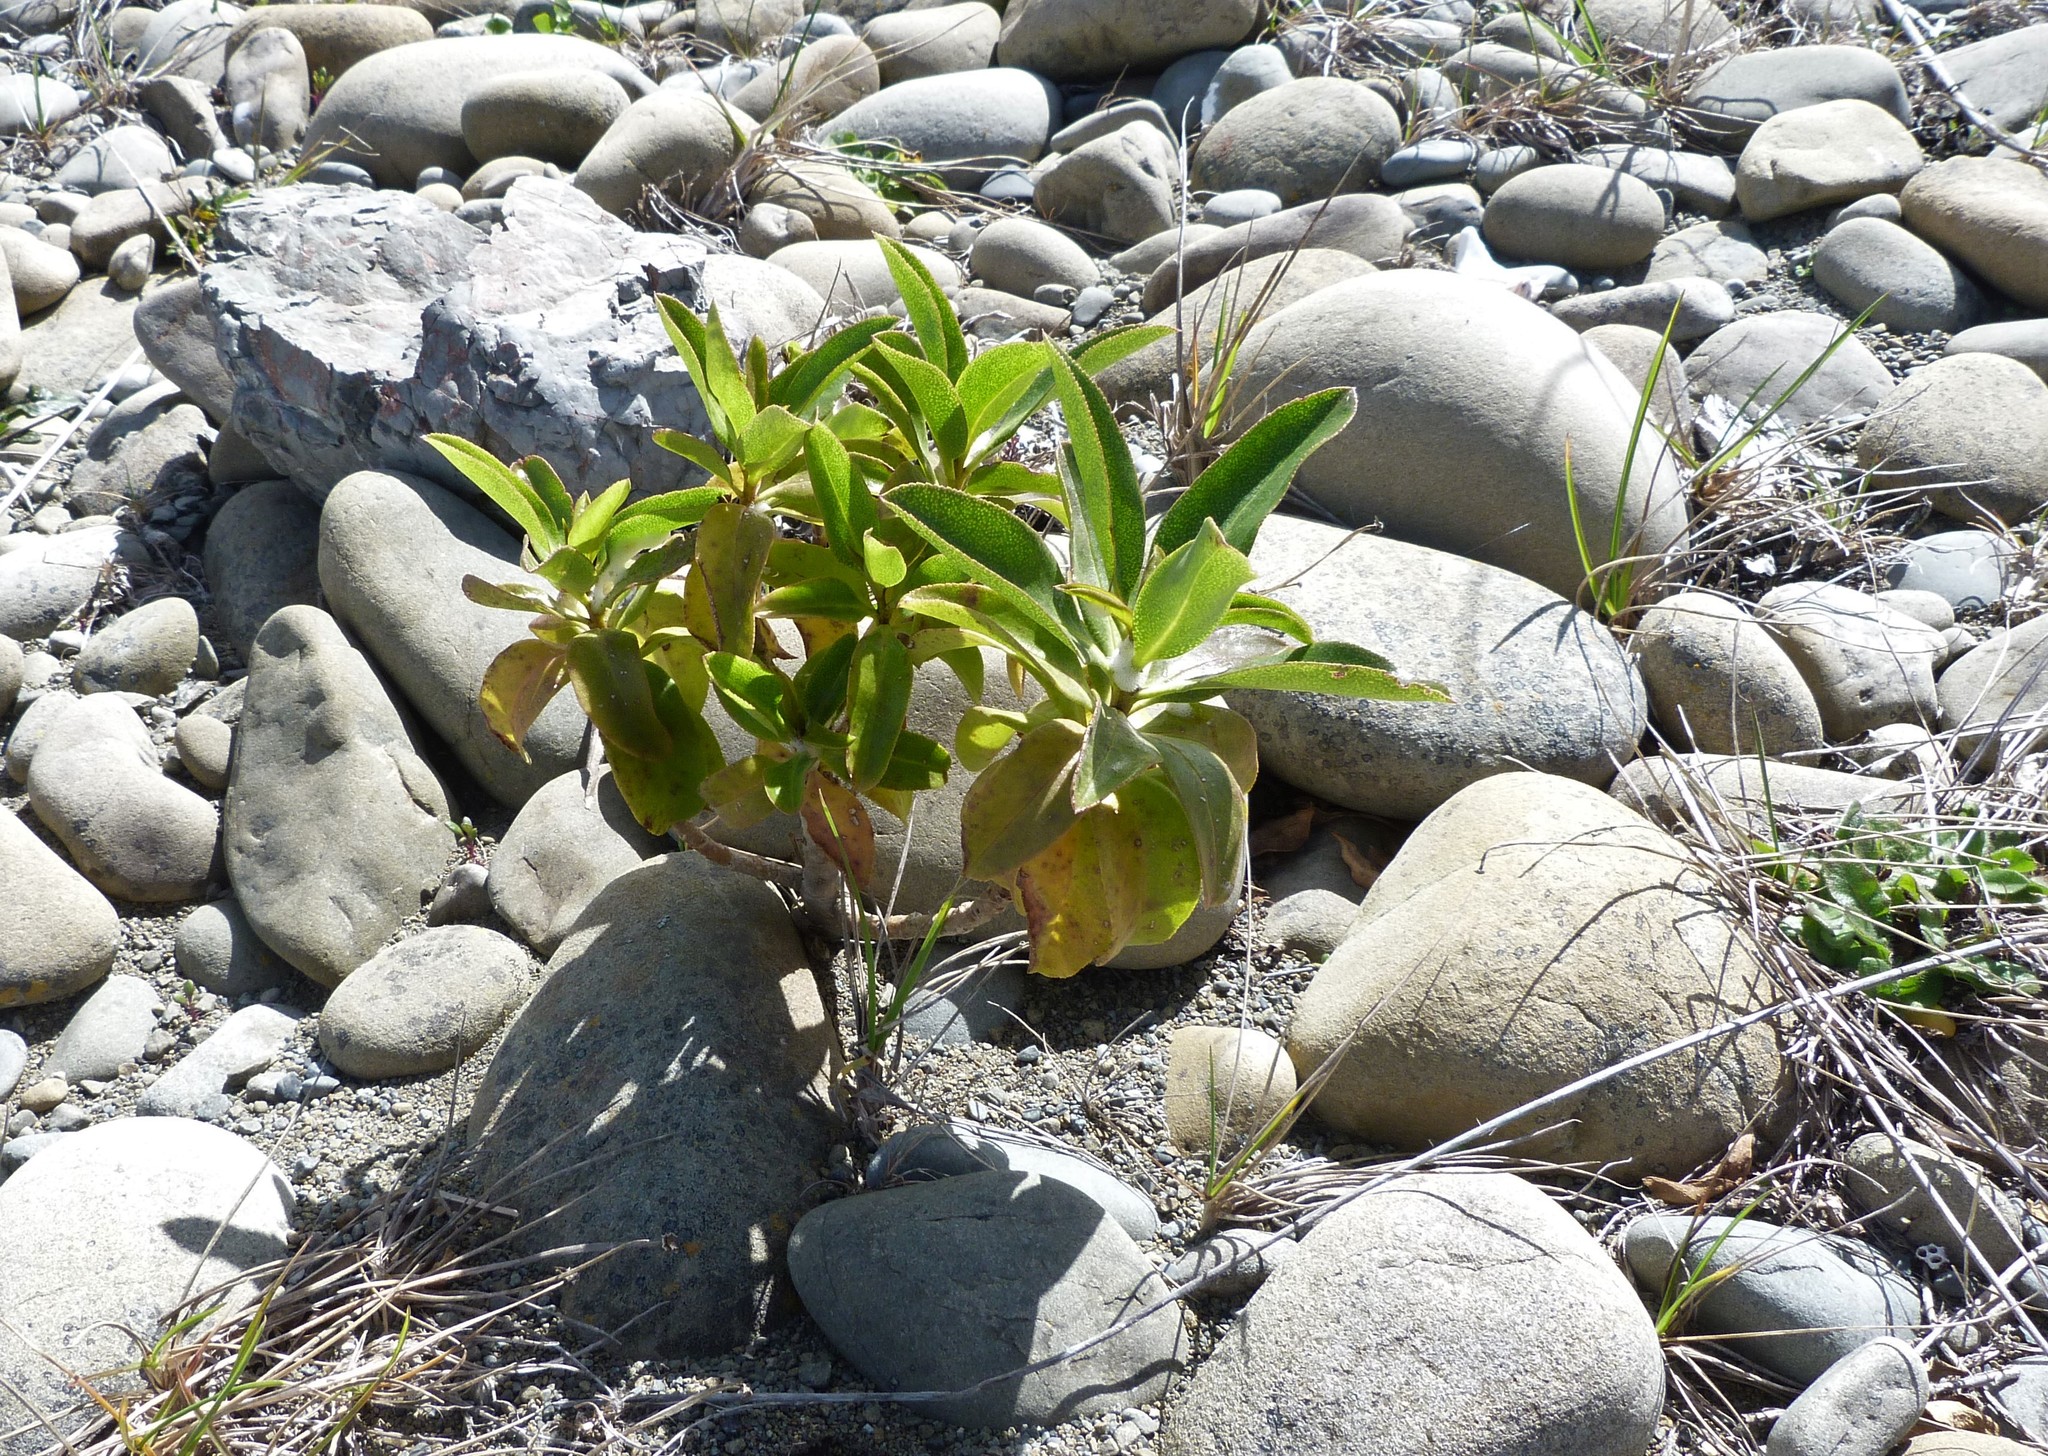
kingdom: Plantae
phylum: Tracheophyta
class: Magnoliopsida
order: Lamiales
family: Scrophulariaceae
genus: Myoporum
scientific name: Myoporum laetum
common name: Ngaio tree
